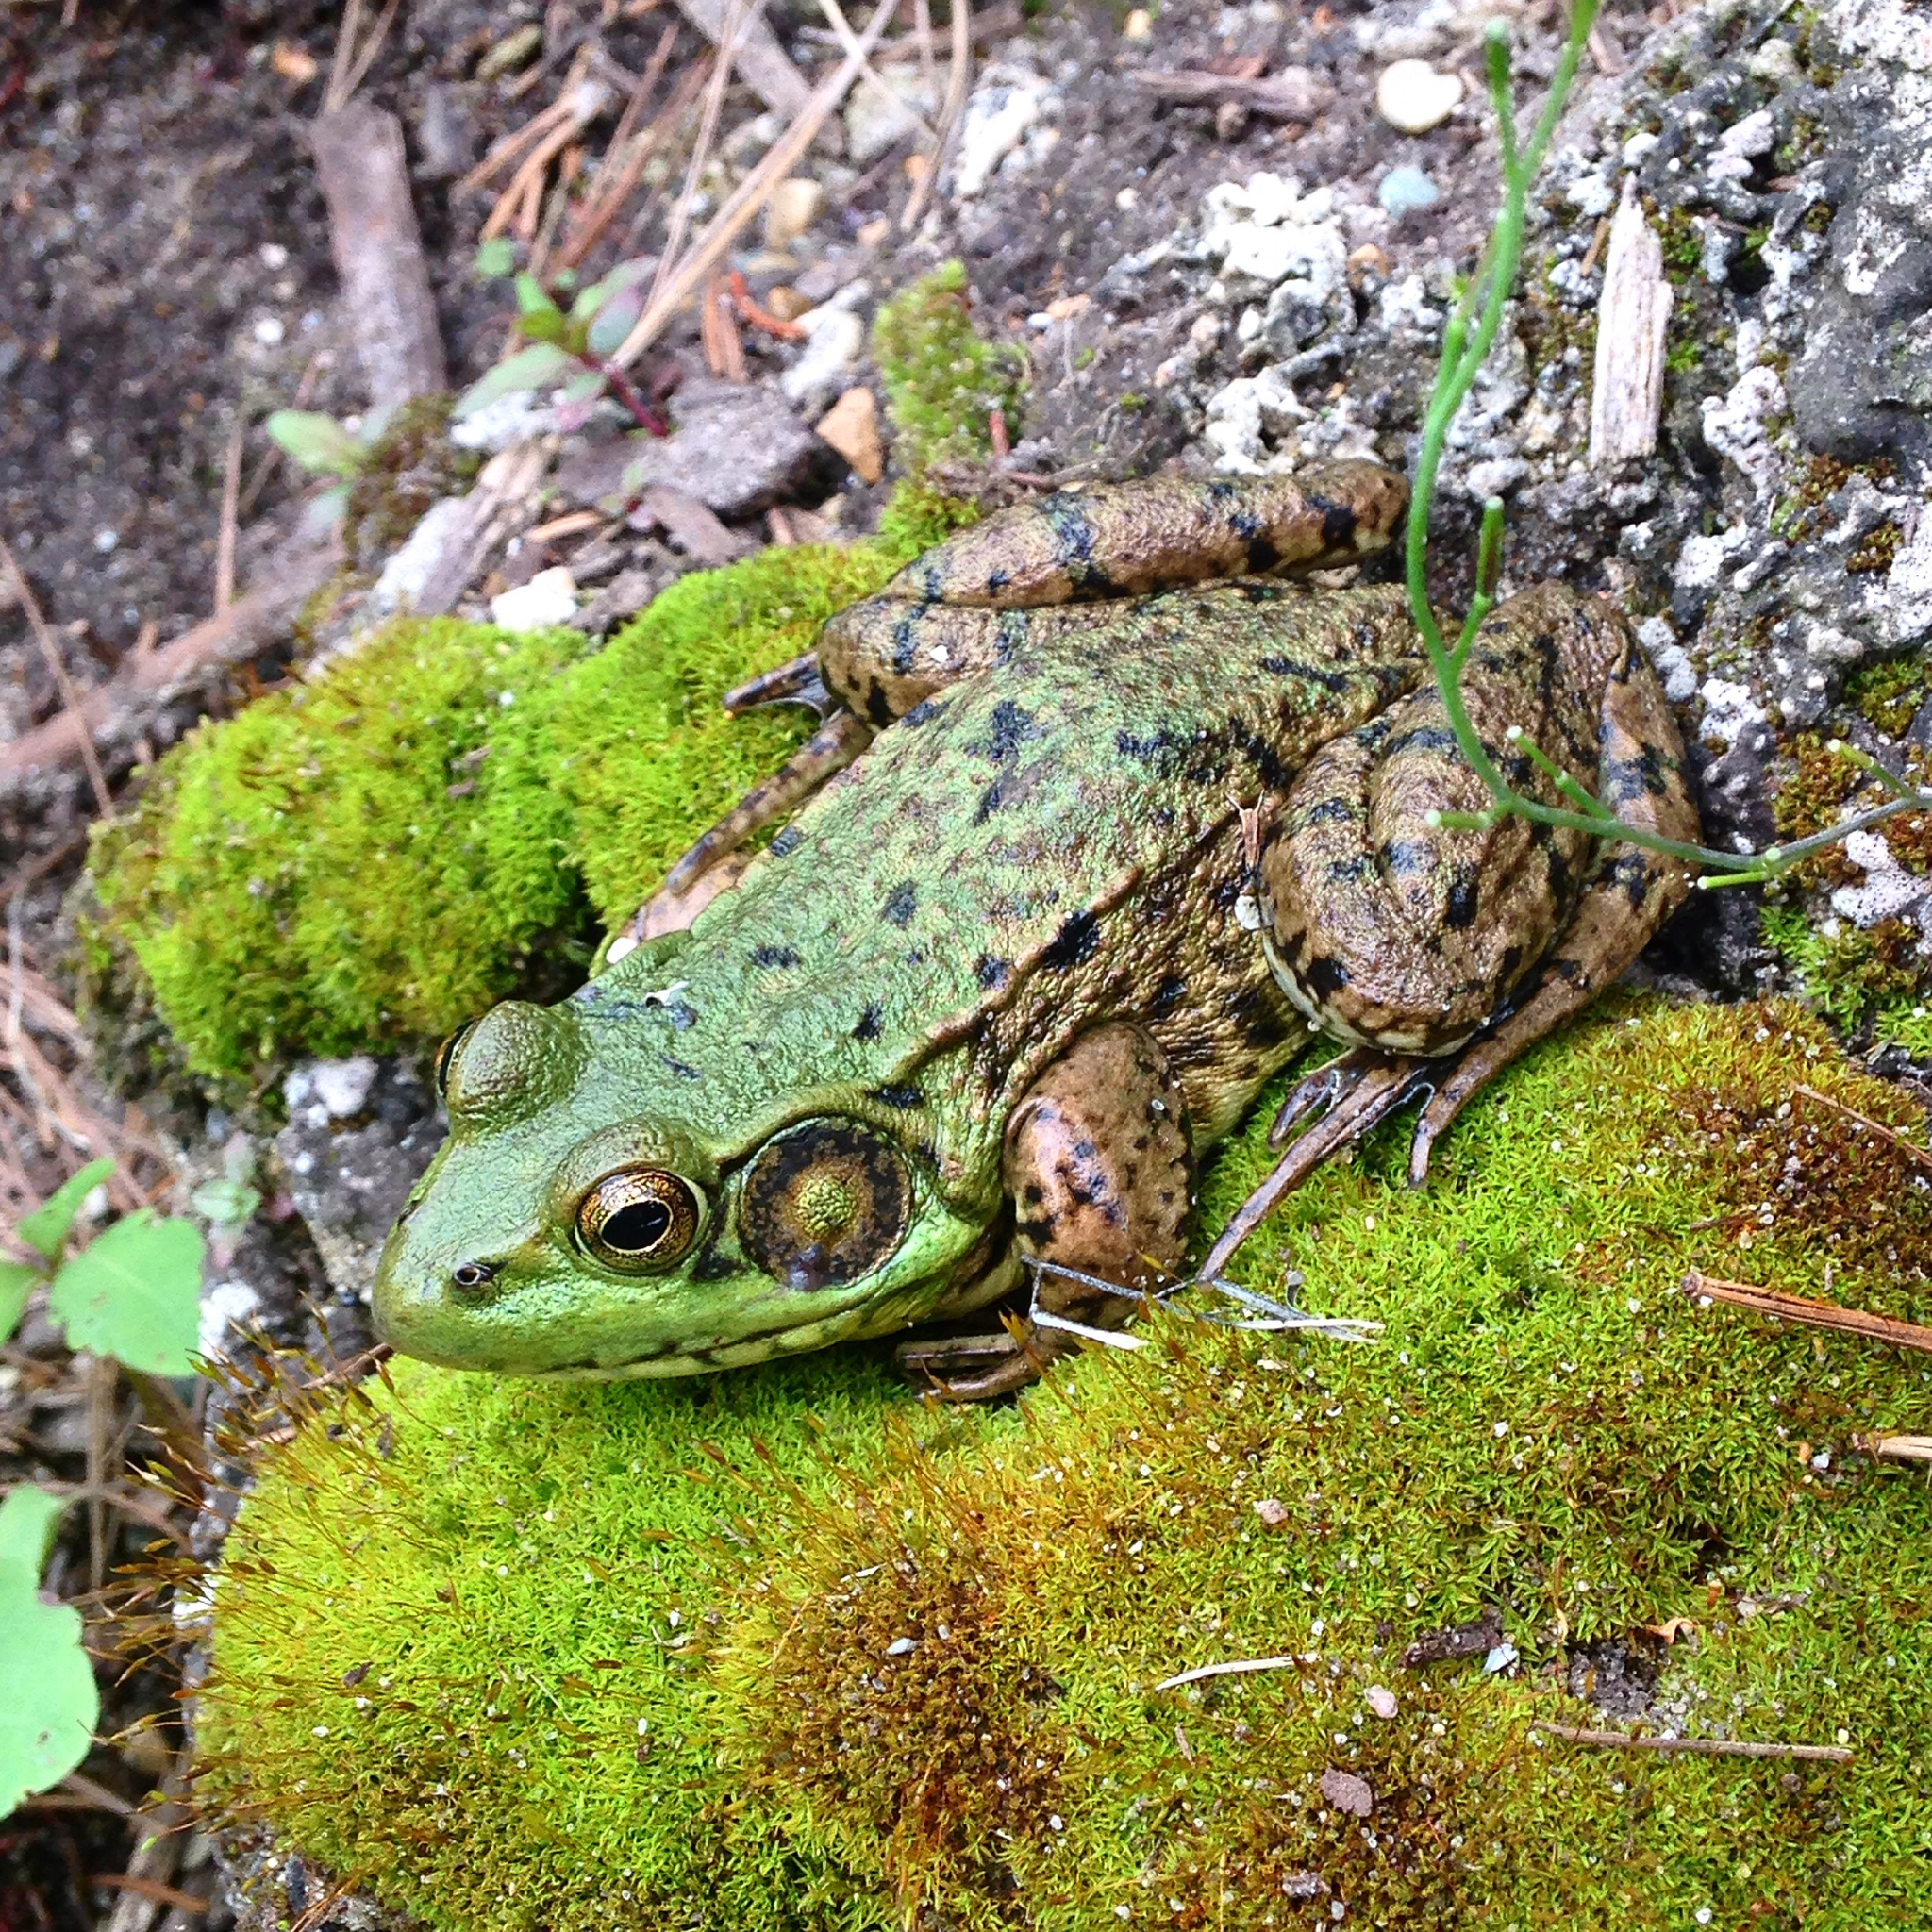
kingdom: Animalia
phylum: Chordata
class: Amphibia
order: Anura
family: Ranidae
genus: Lithobates
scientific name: Lithobates clamitans
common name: Green frog
